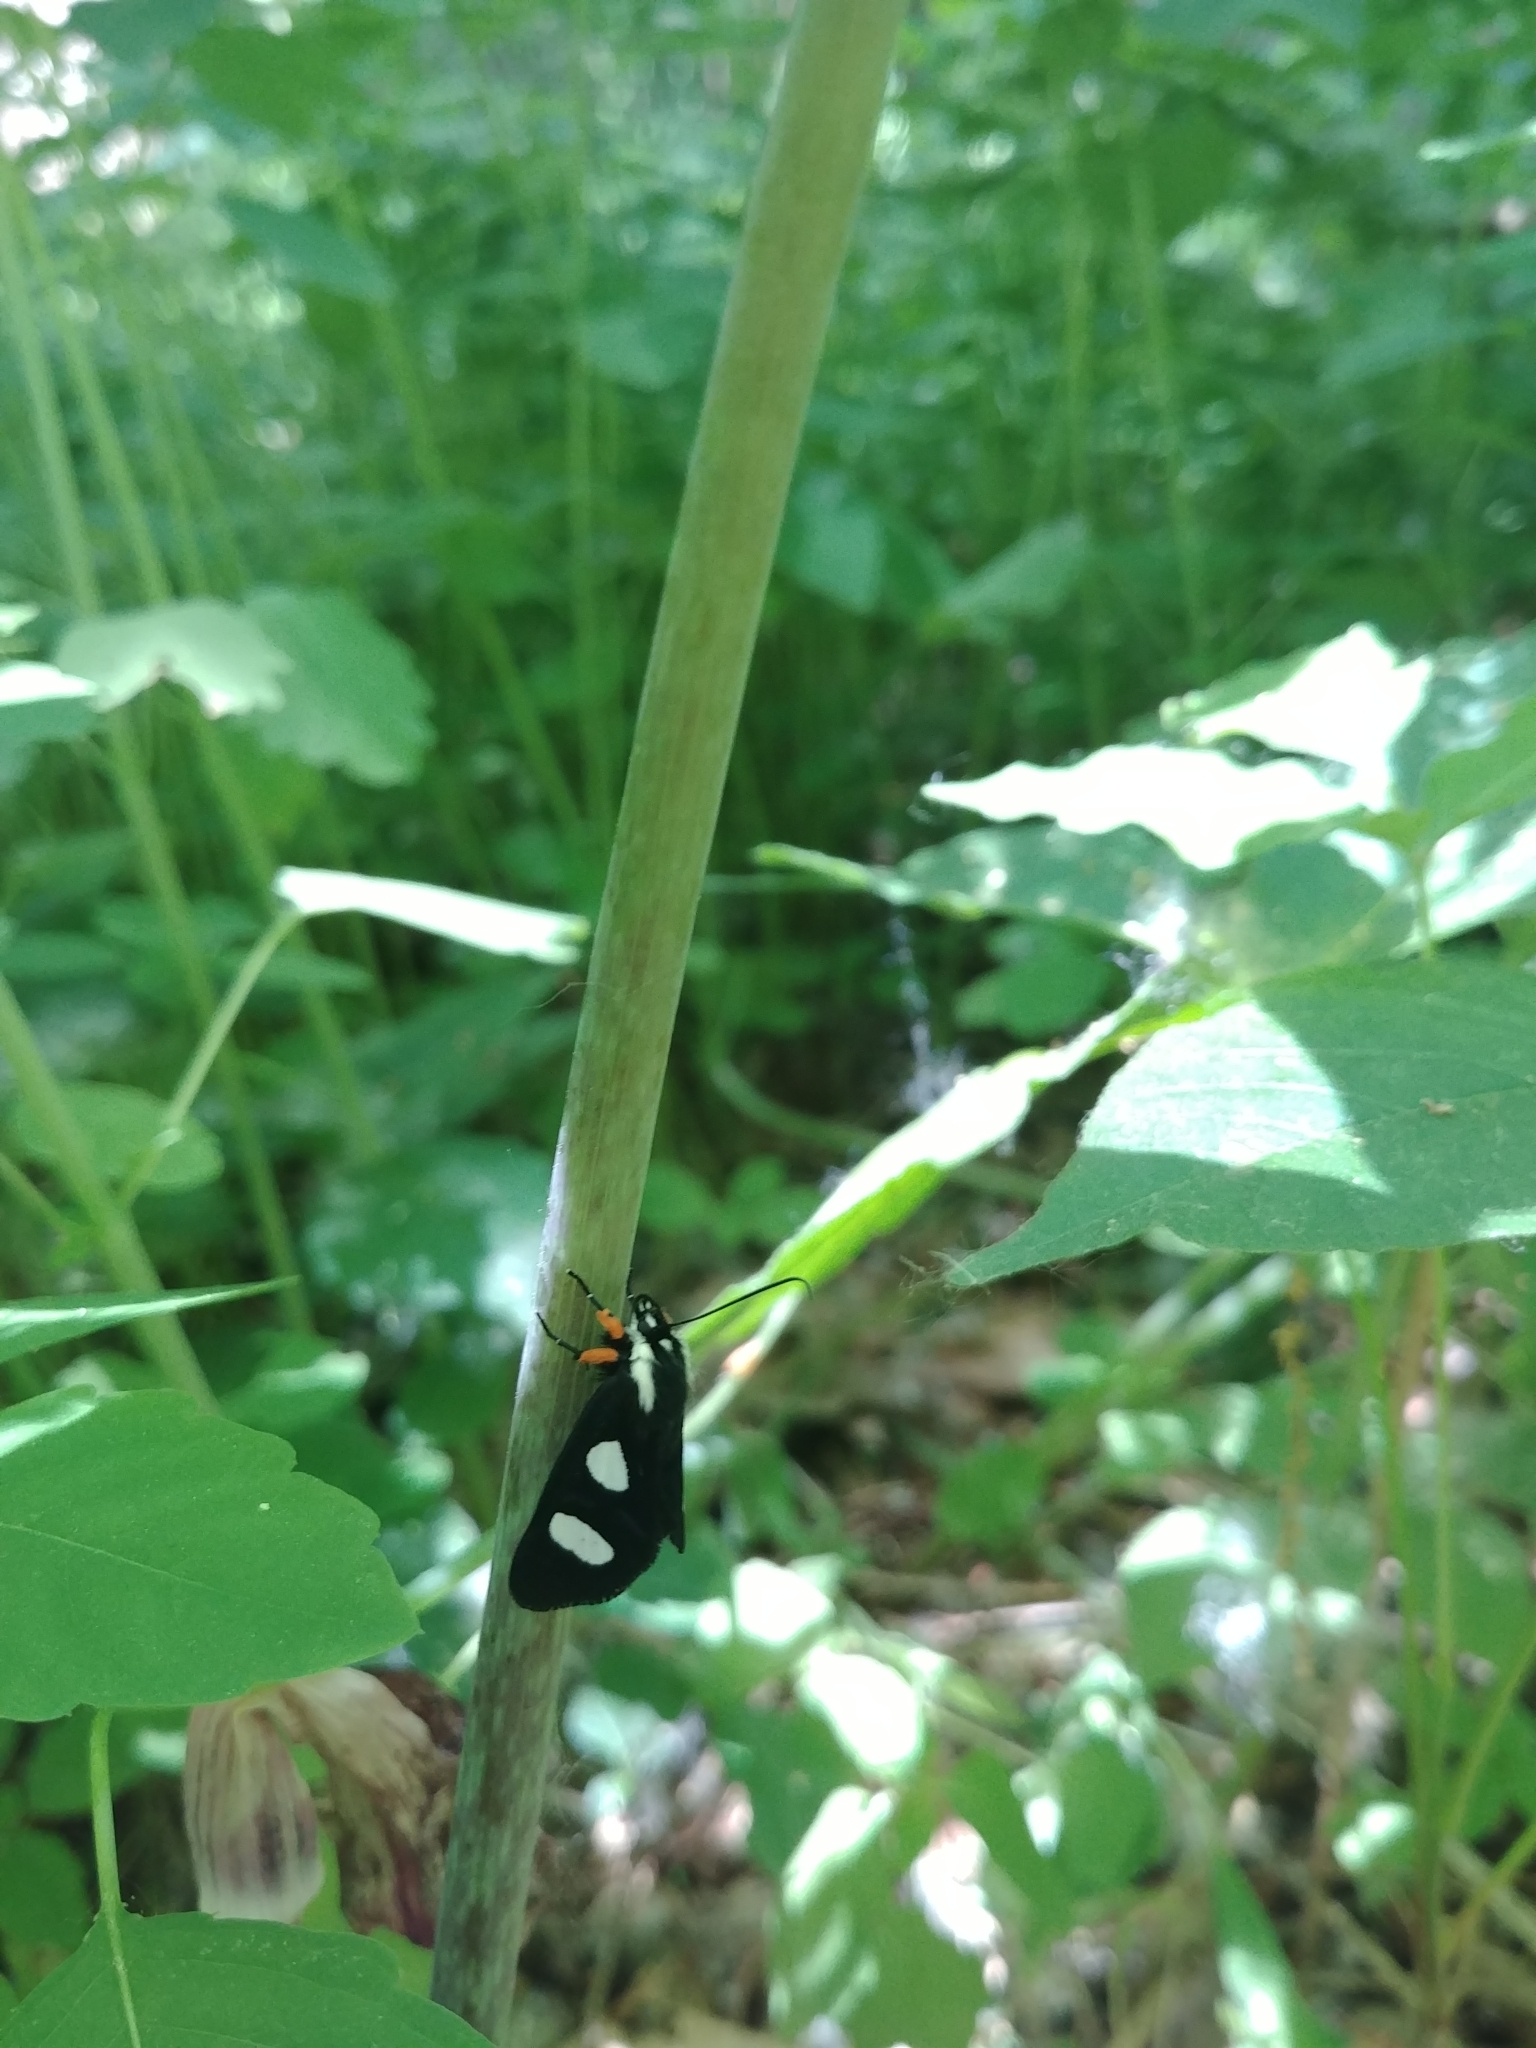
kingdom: Animalia
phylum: Arthropoda
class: Insecta
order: Lepidoptera
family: Noctuidae
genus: Alypia
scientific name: Alypia octomaculata
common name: Eight-spotted forester
